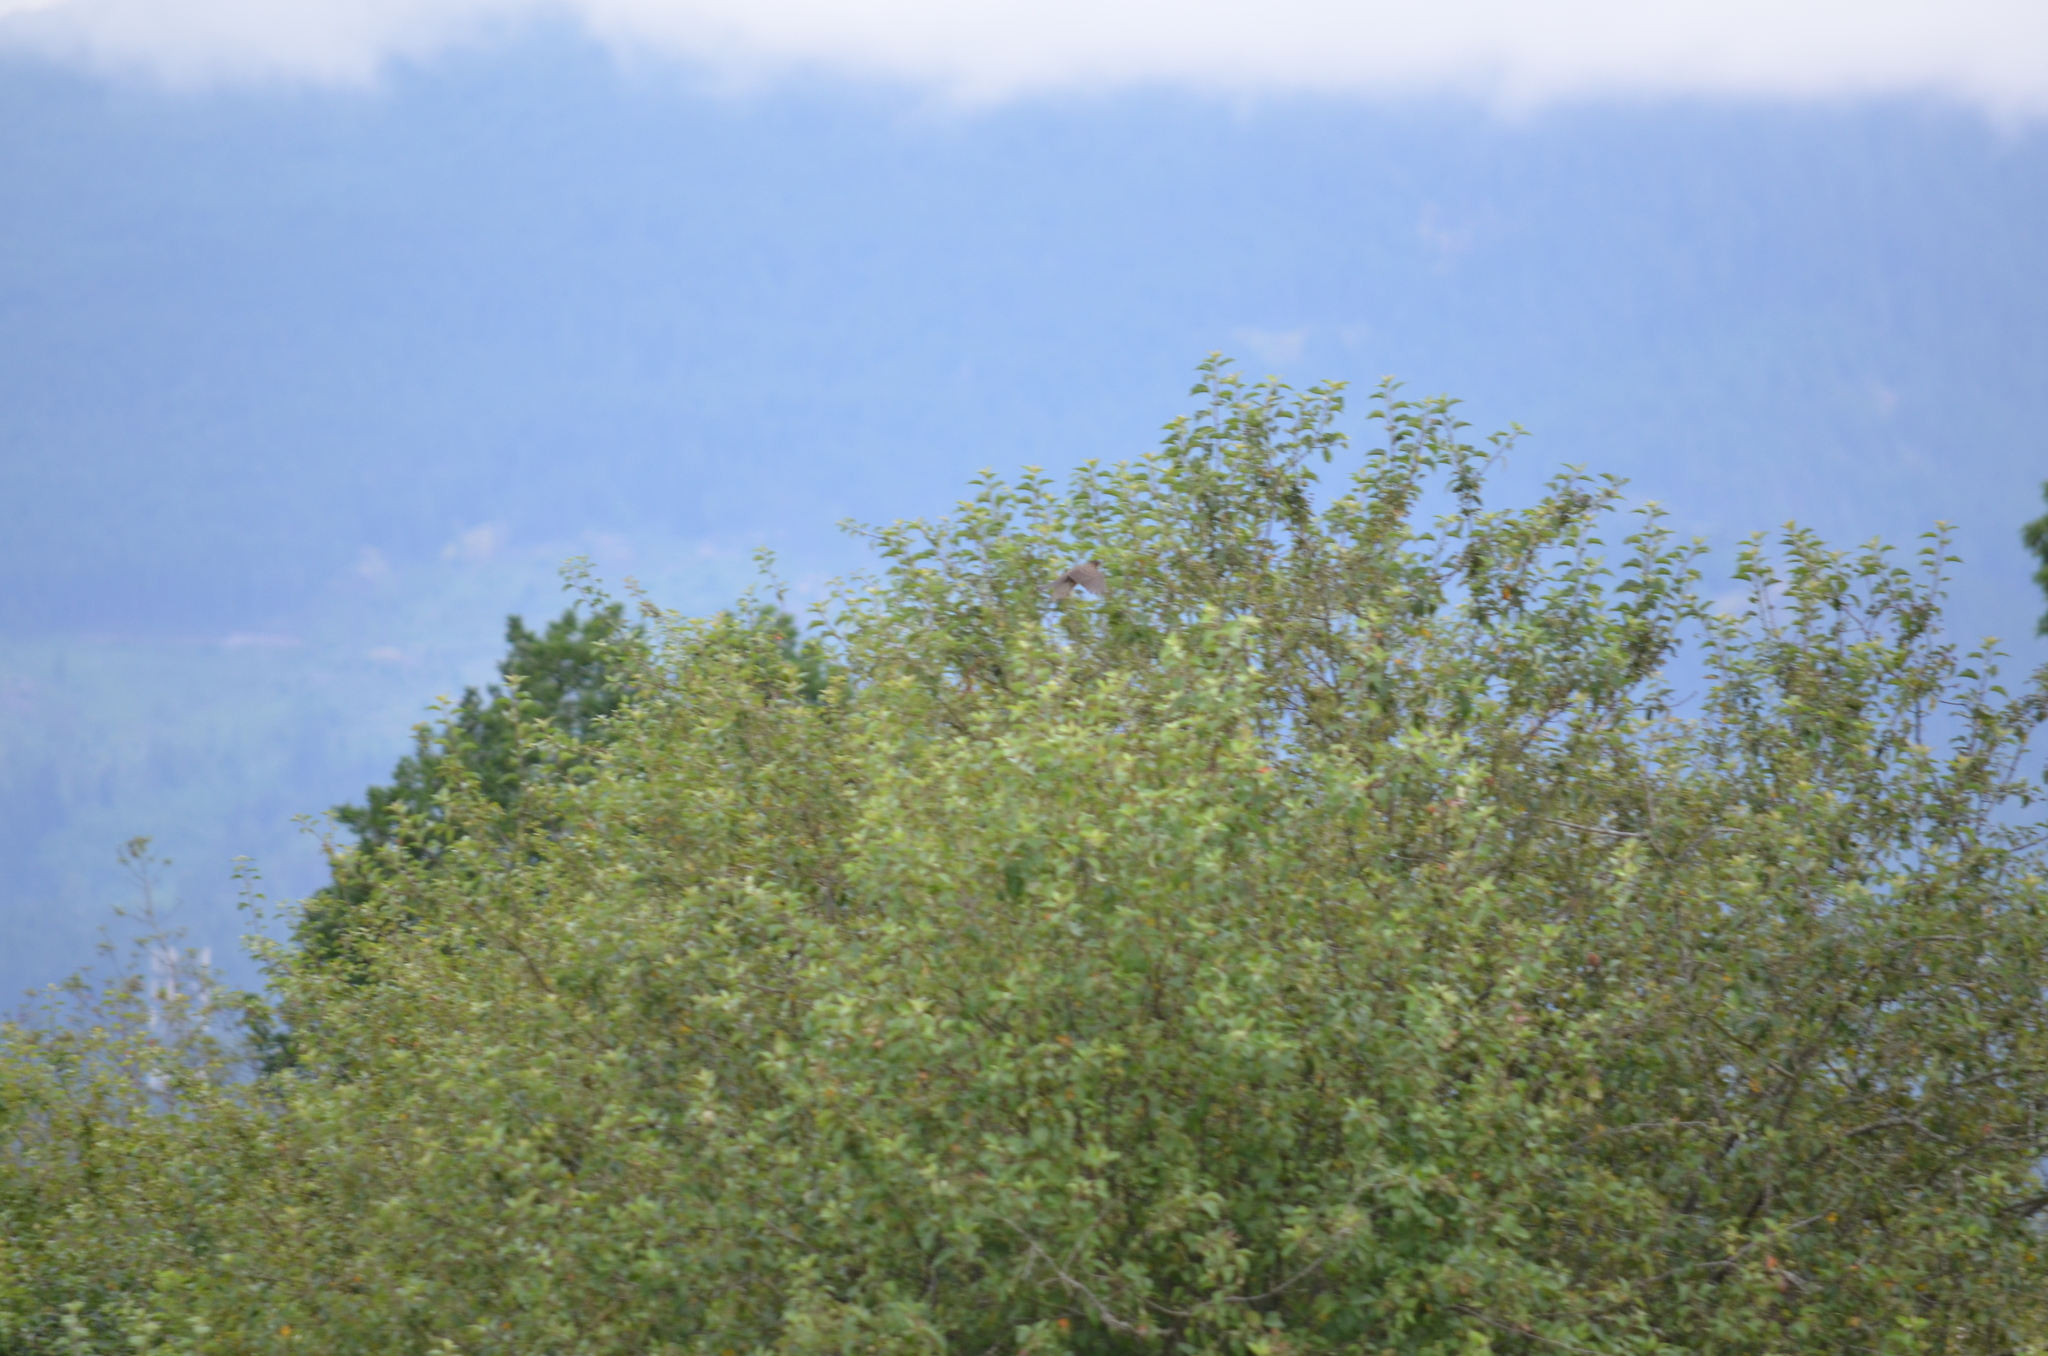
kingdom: Animalia
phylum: Chordata
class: Aves
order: Passeriformes
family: Turdidae
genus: Turdus
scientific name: Turdus migratorius
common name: American robin
